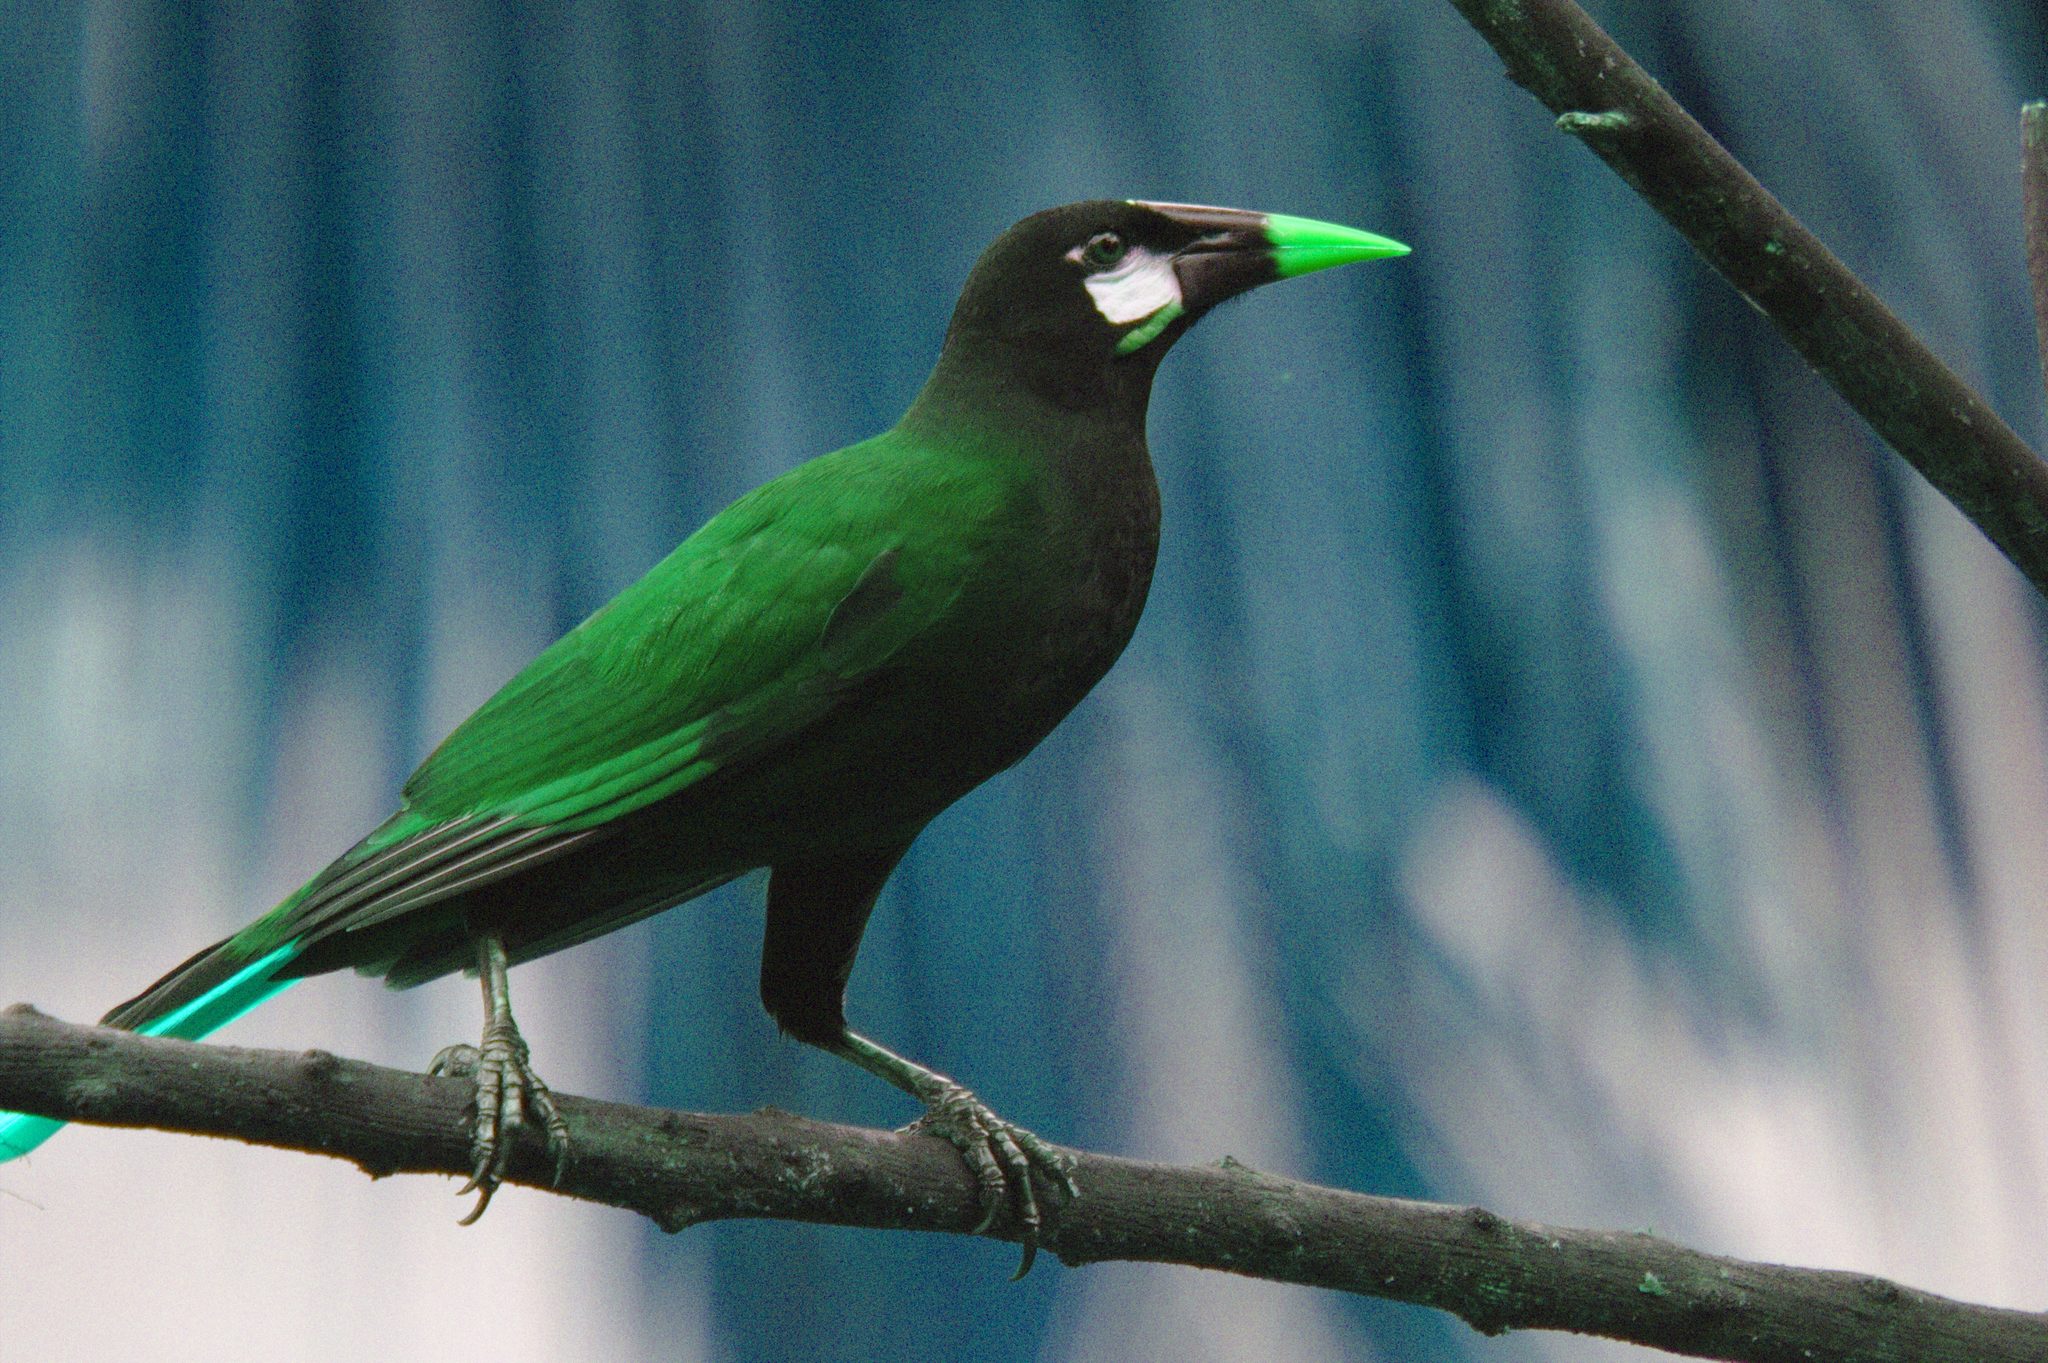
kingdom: Animalia
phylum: Chordata
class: Aves
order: Passeriformes
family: Icteridae
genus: Psarocolius
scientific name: Psarocolius montezuma
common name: Montezuma oropendola
